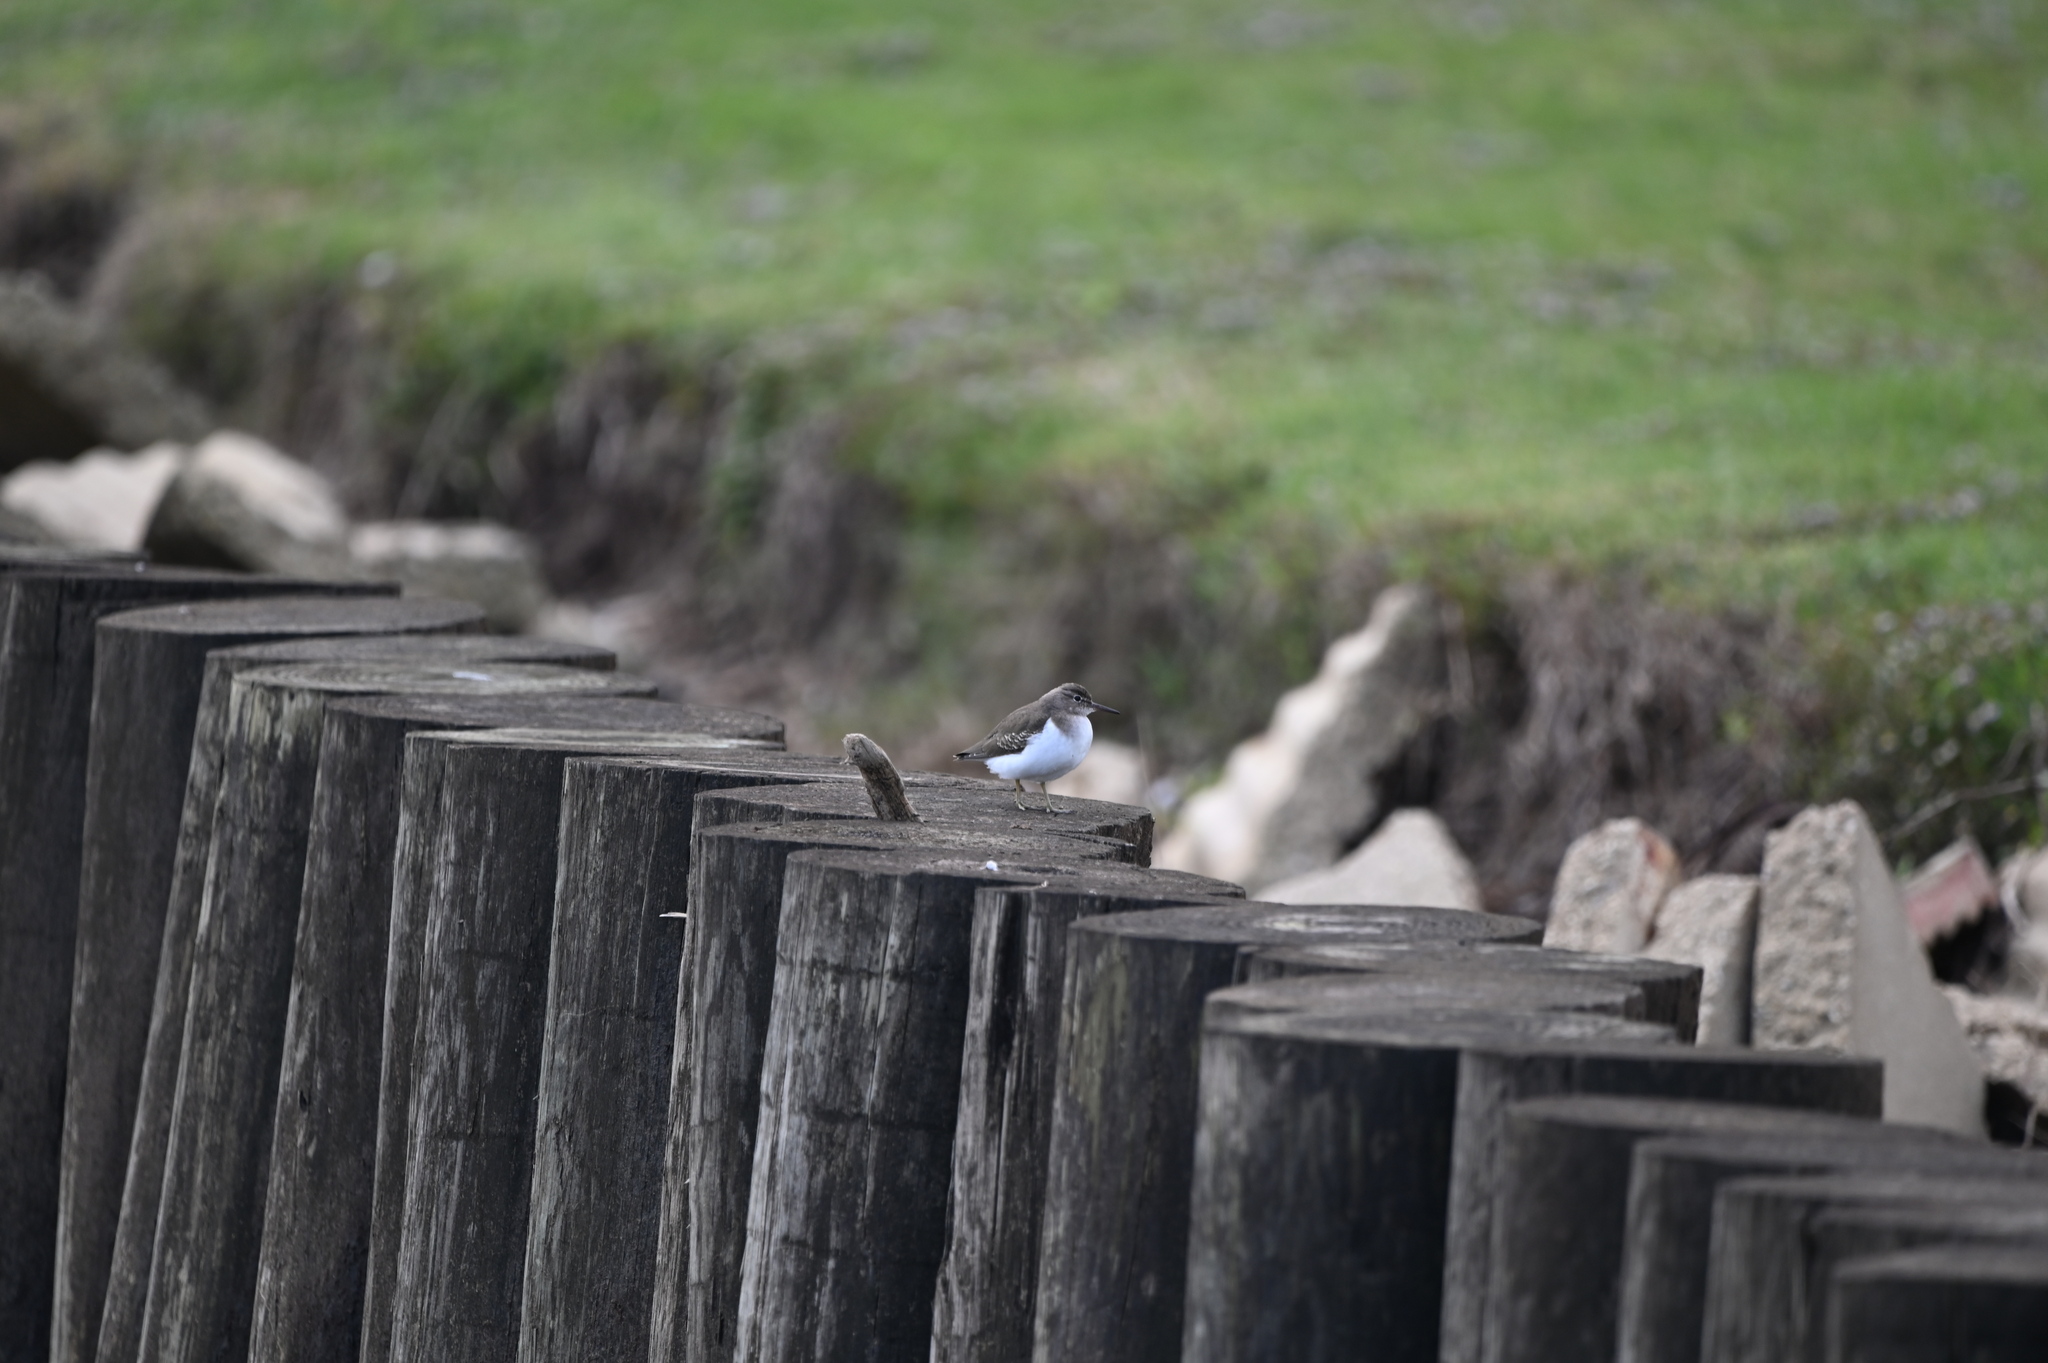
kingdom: Animalia
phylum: Chordata
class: Aves
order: Charadriiformes
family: Scolopacidae
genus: Actitis
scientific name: Actitis macularius
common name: Spotted sandpiper
